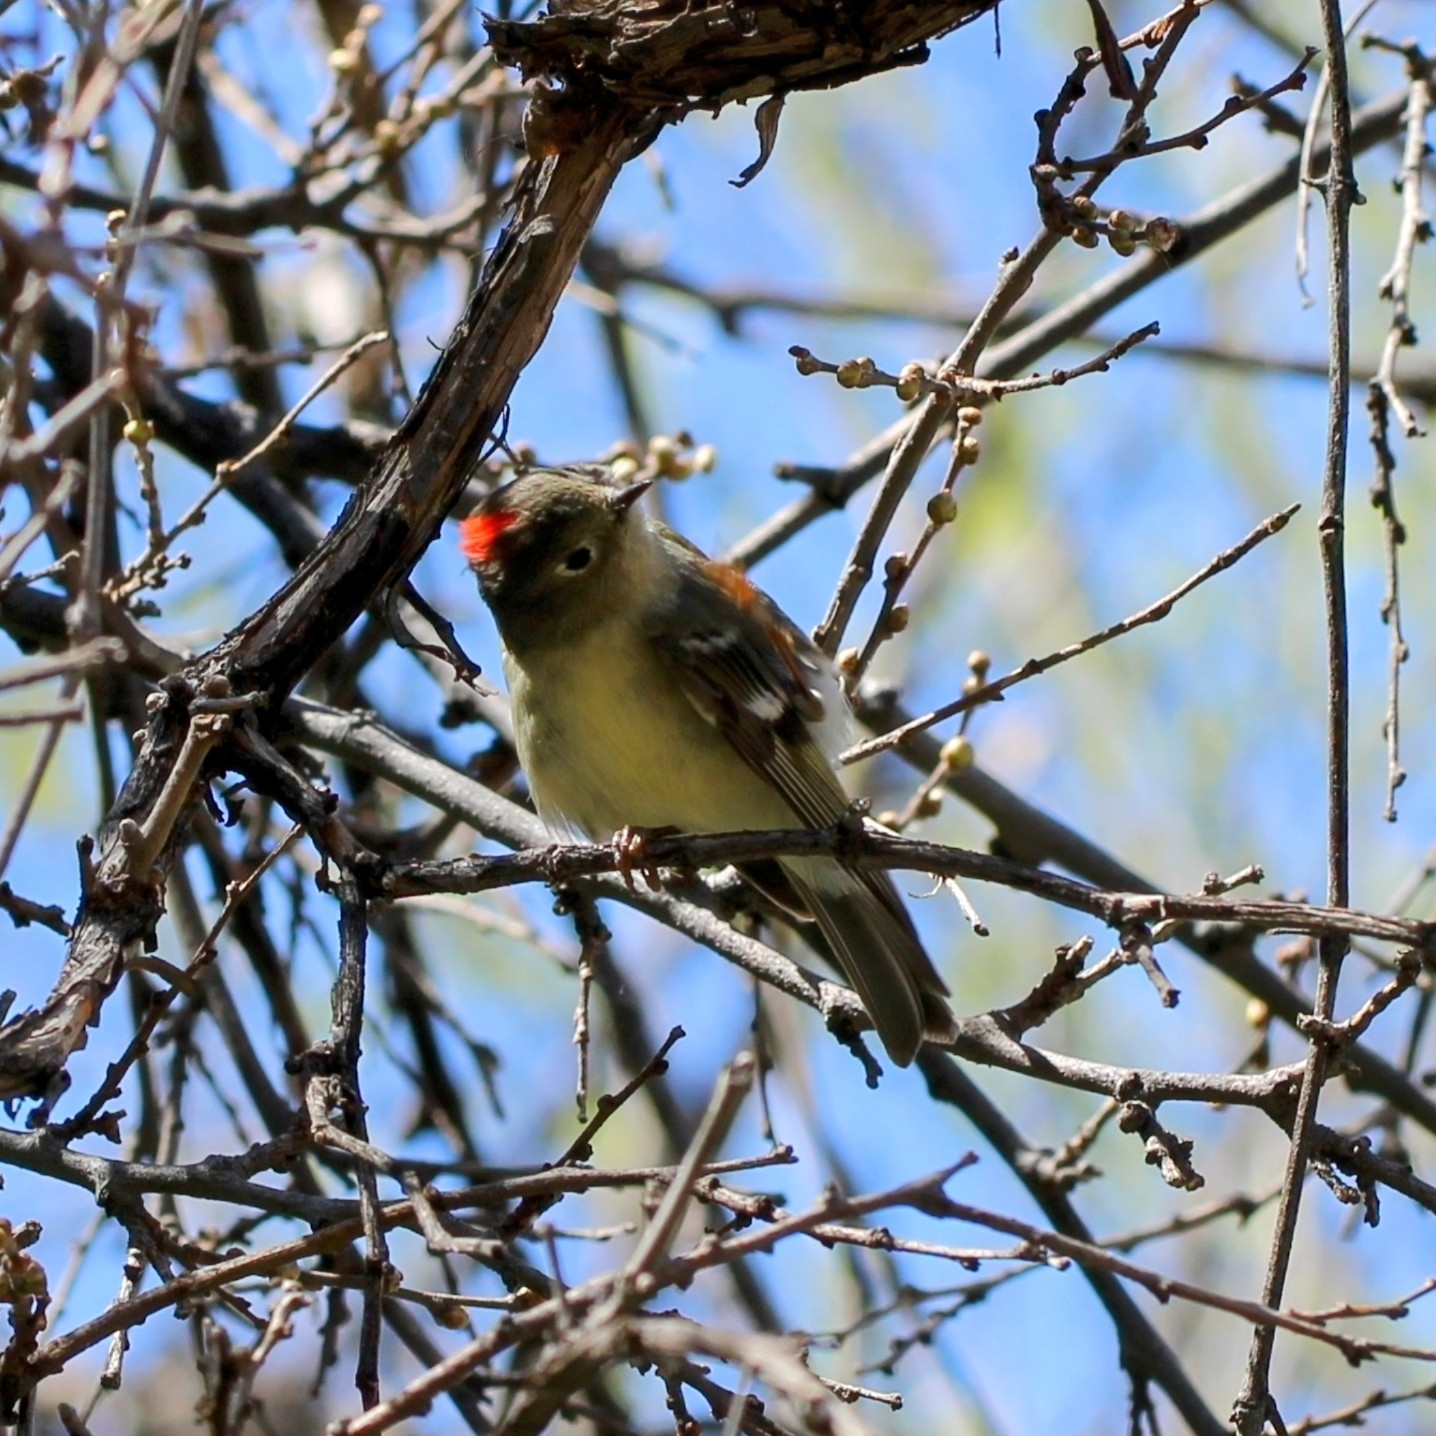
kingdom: Animalia
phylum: Chordata
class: Aves
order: Passeriformes
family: Regulidae
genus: Regulus
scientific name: Regulus calendula
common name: Ruby-crowned kinglet
